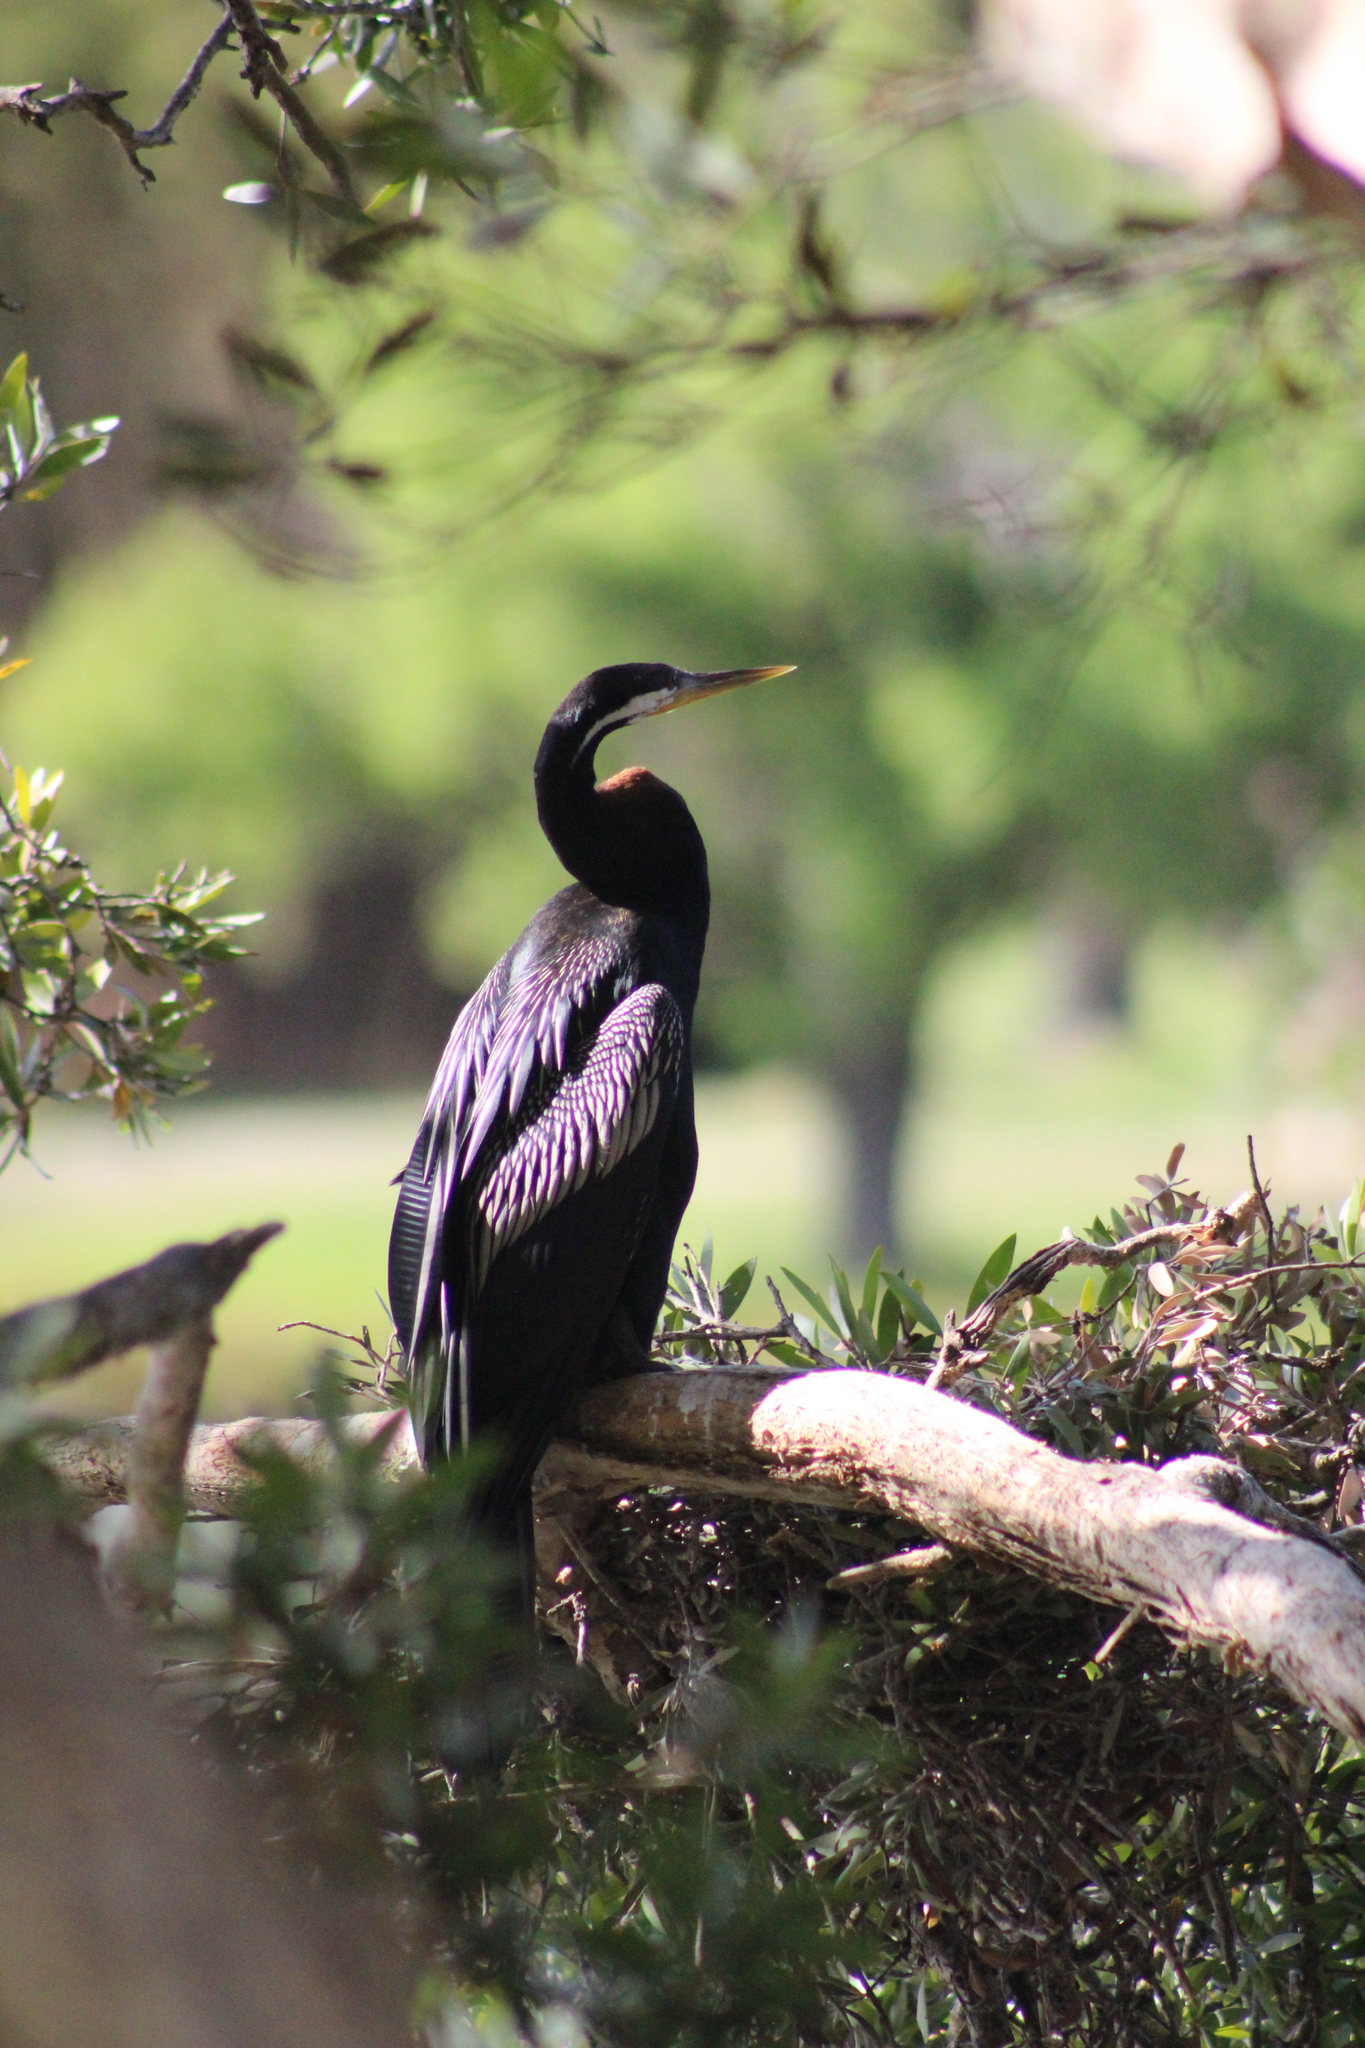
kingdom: Animalia
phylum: Chordata
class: Aves
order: Suliformes
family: Anhingidae
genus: Anhinga
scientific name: Anhinga novaehollandiae
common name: Australasian darter
